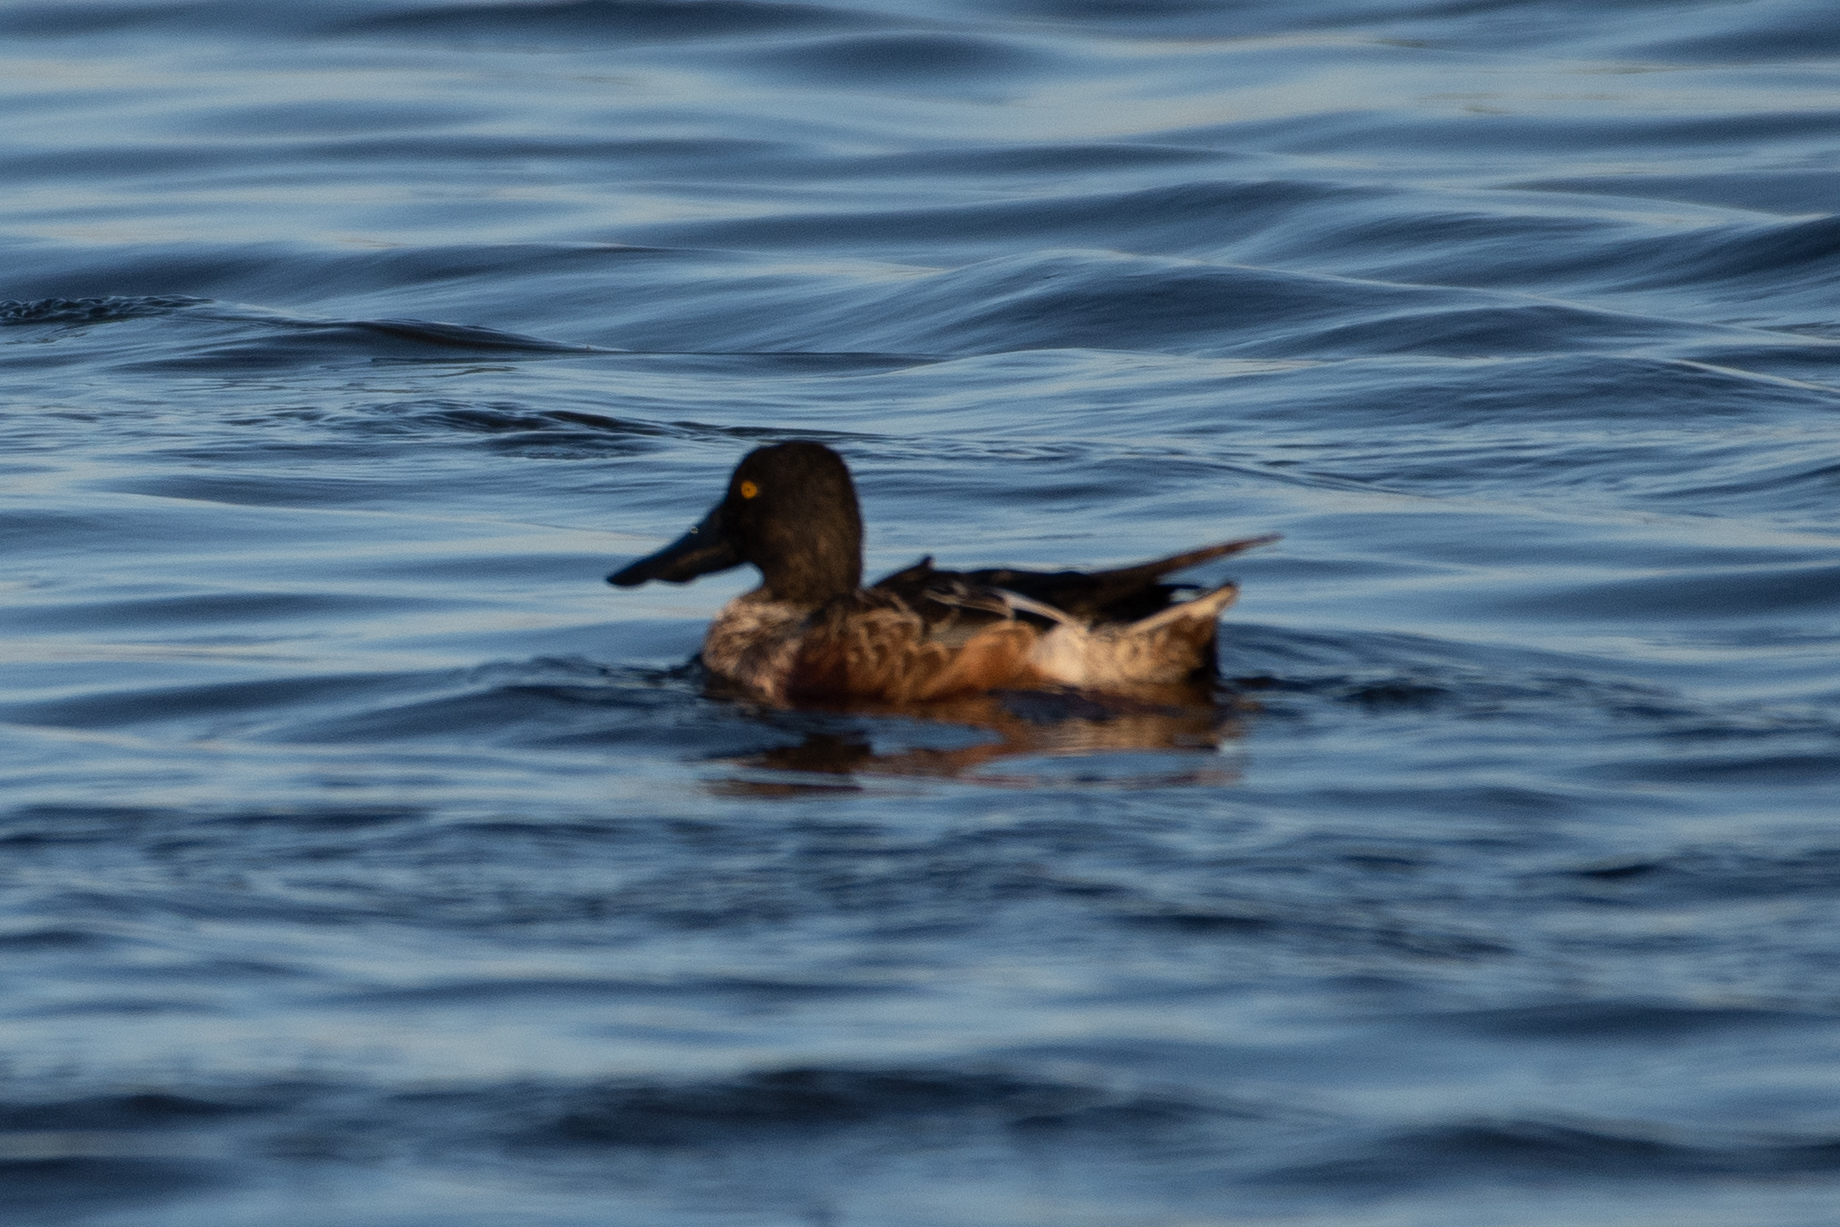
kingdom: Animalia
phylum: Chordata
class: Aves
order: Anseriformes
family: Anatidae
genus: Spatula
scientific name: Spatula clypeata
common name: Northern shoveler
